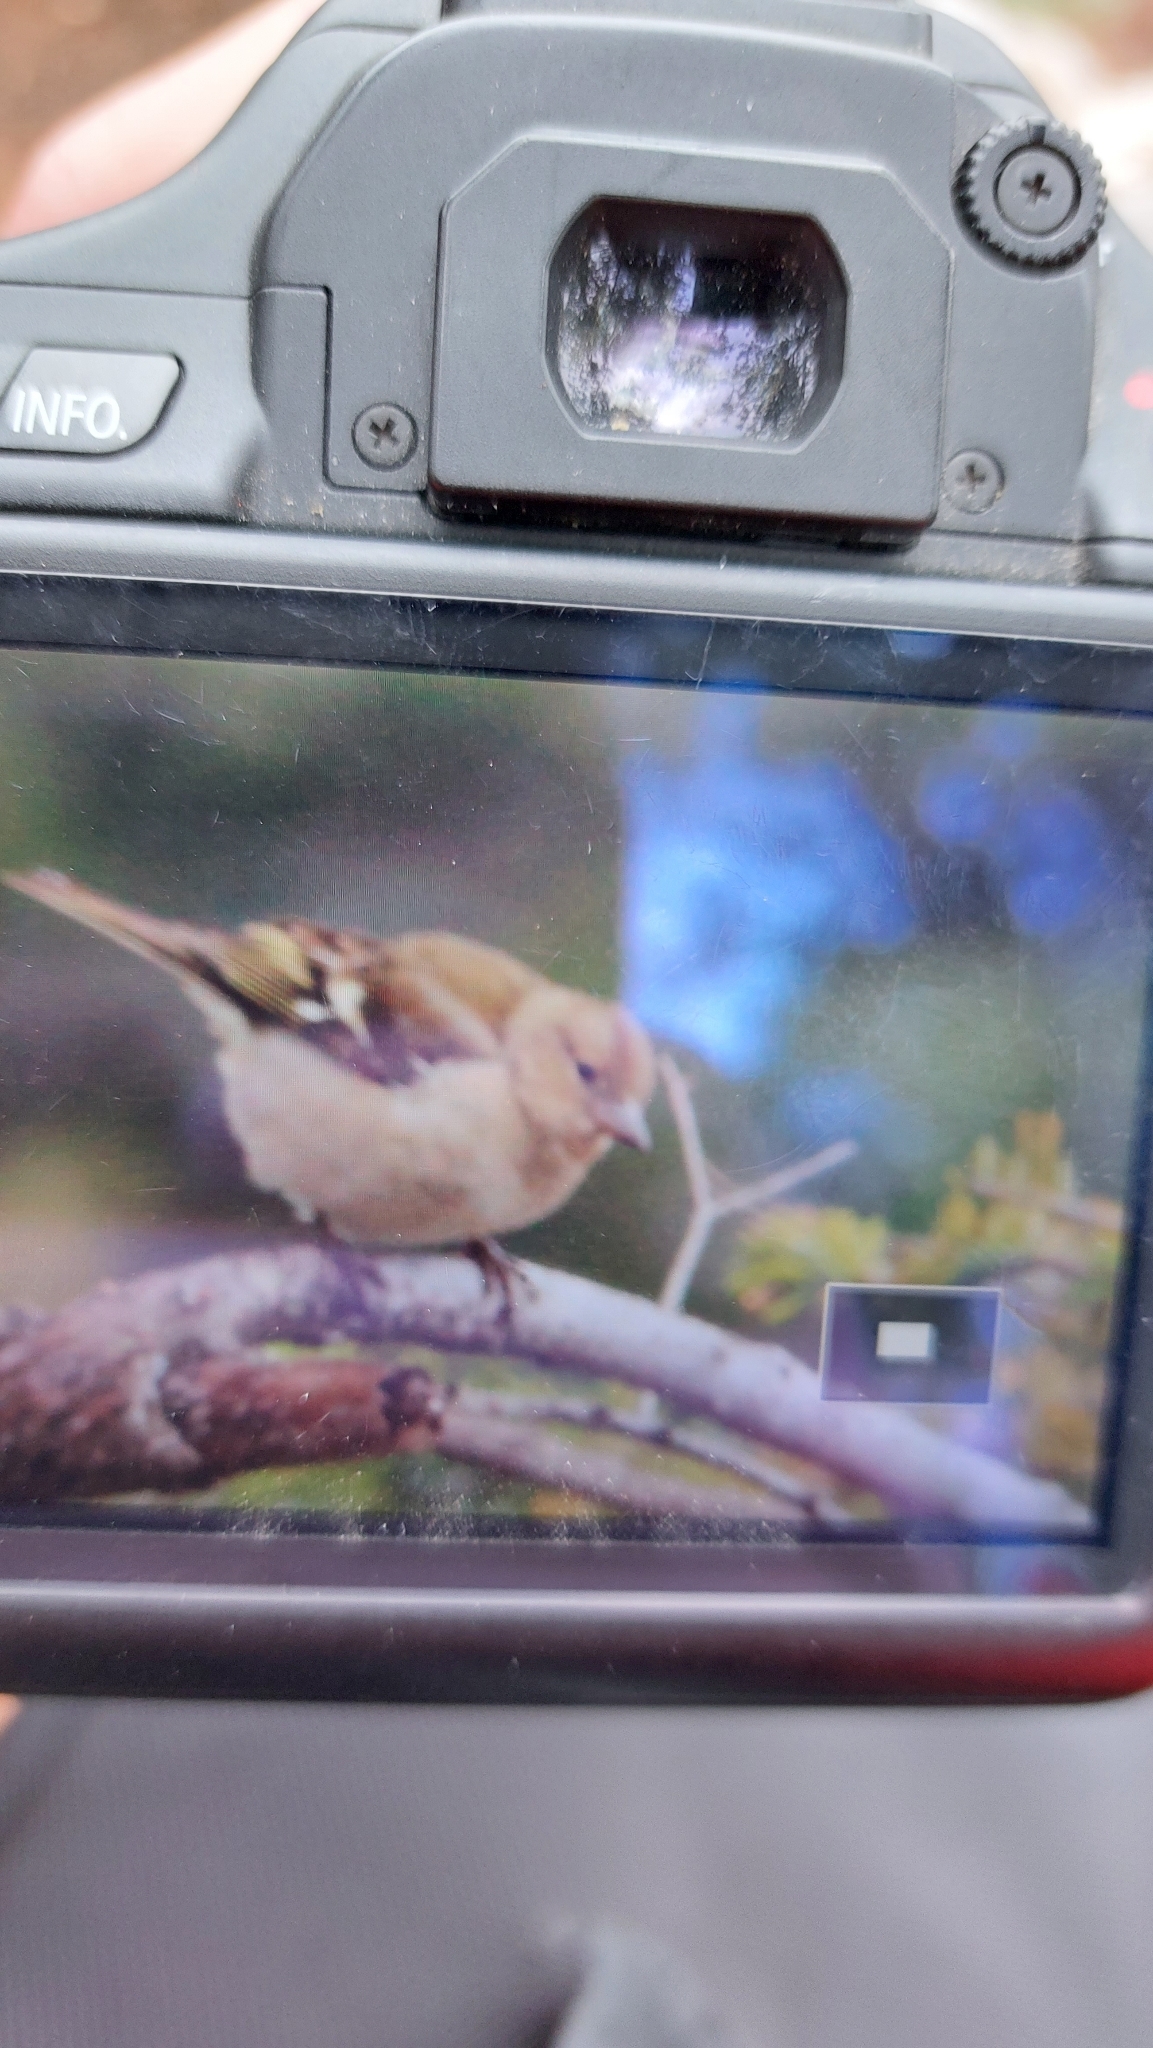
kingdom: Animalia
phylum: Chordata
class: Aves
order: Passeriformes
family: Fringillidae
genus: Fringilla
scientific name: Fringilla coelebs
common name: Common chaffinch
